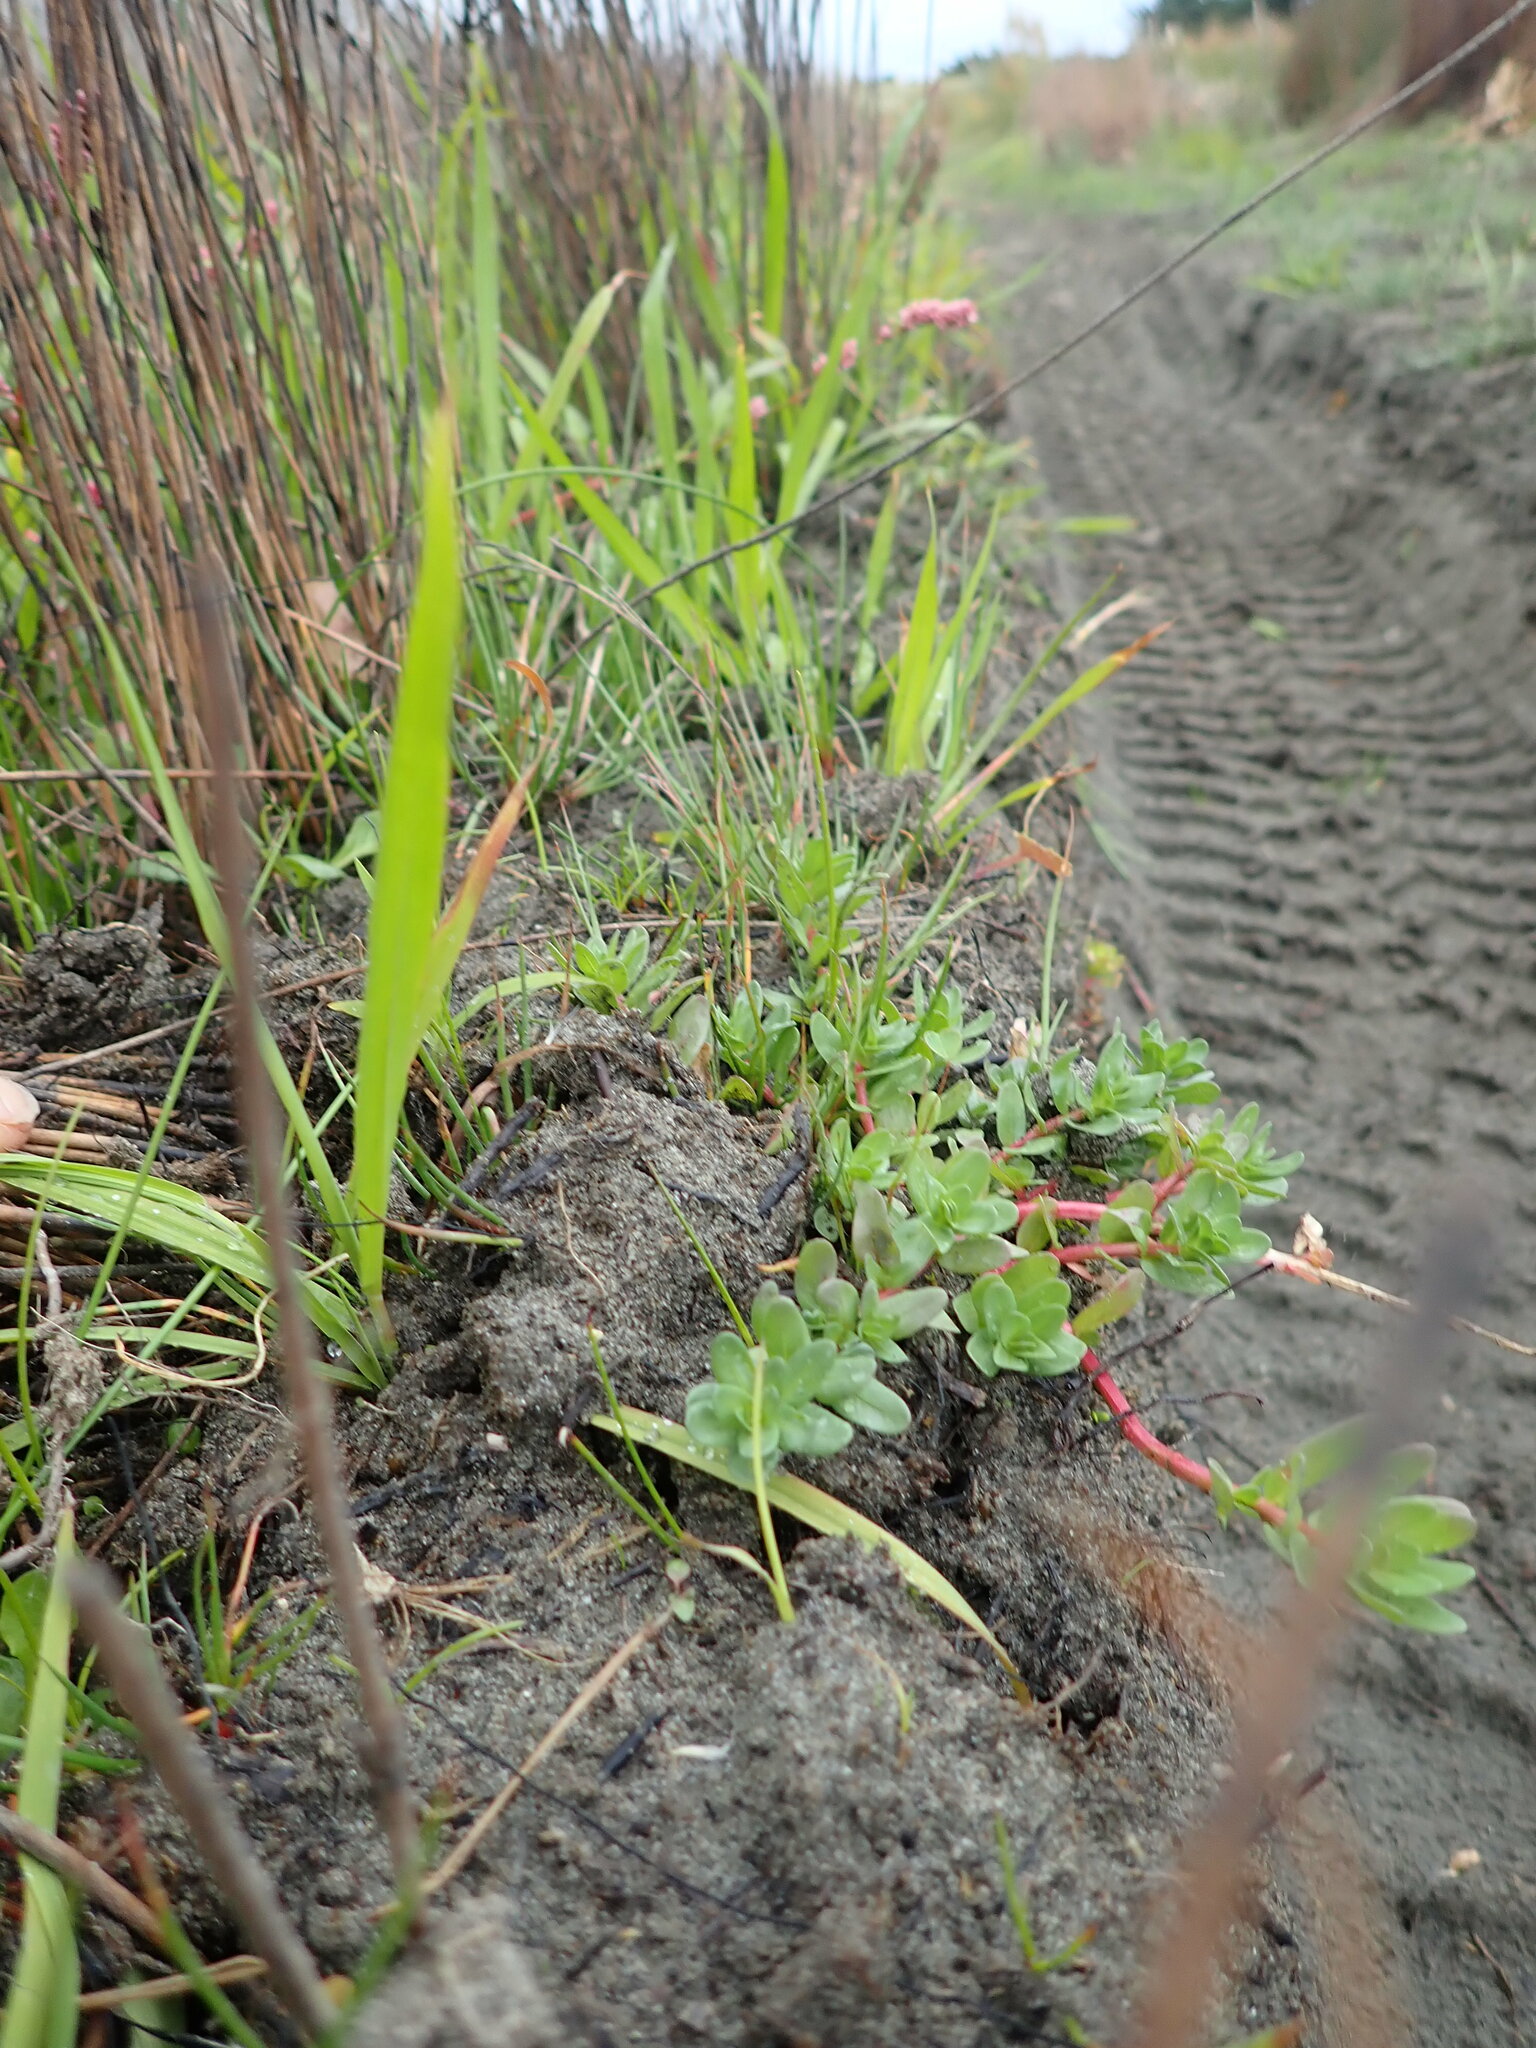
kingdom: Plantae
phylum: Tracheophyta
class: Magnoliopsida
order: Caryophyllales
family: Portulacaceae
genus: Portulaca
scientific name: Portulaca oleracea
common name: Common purslane
